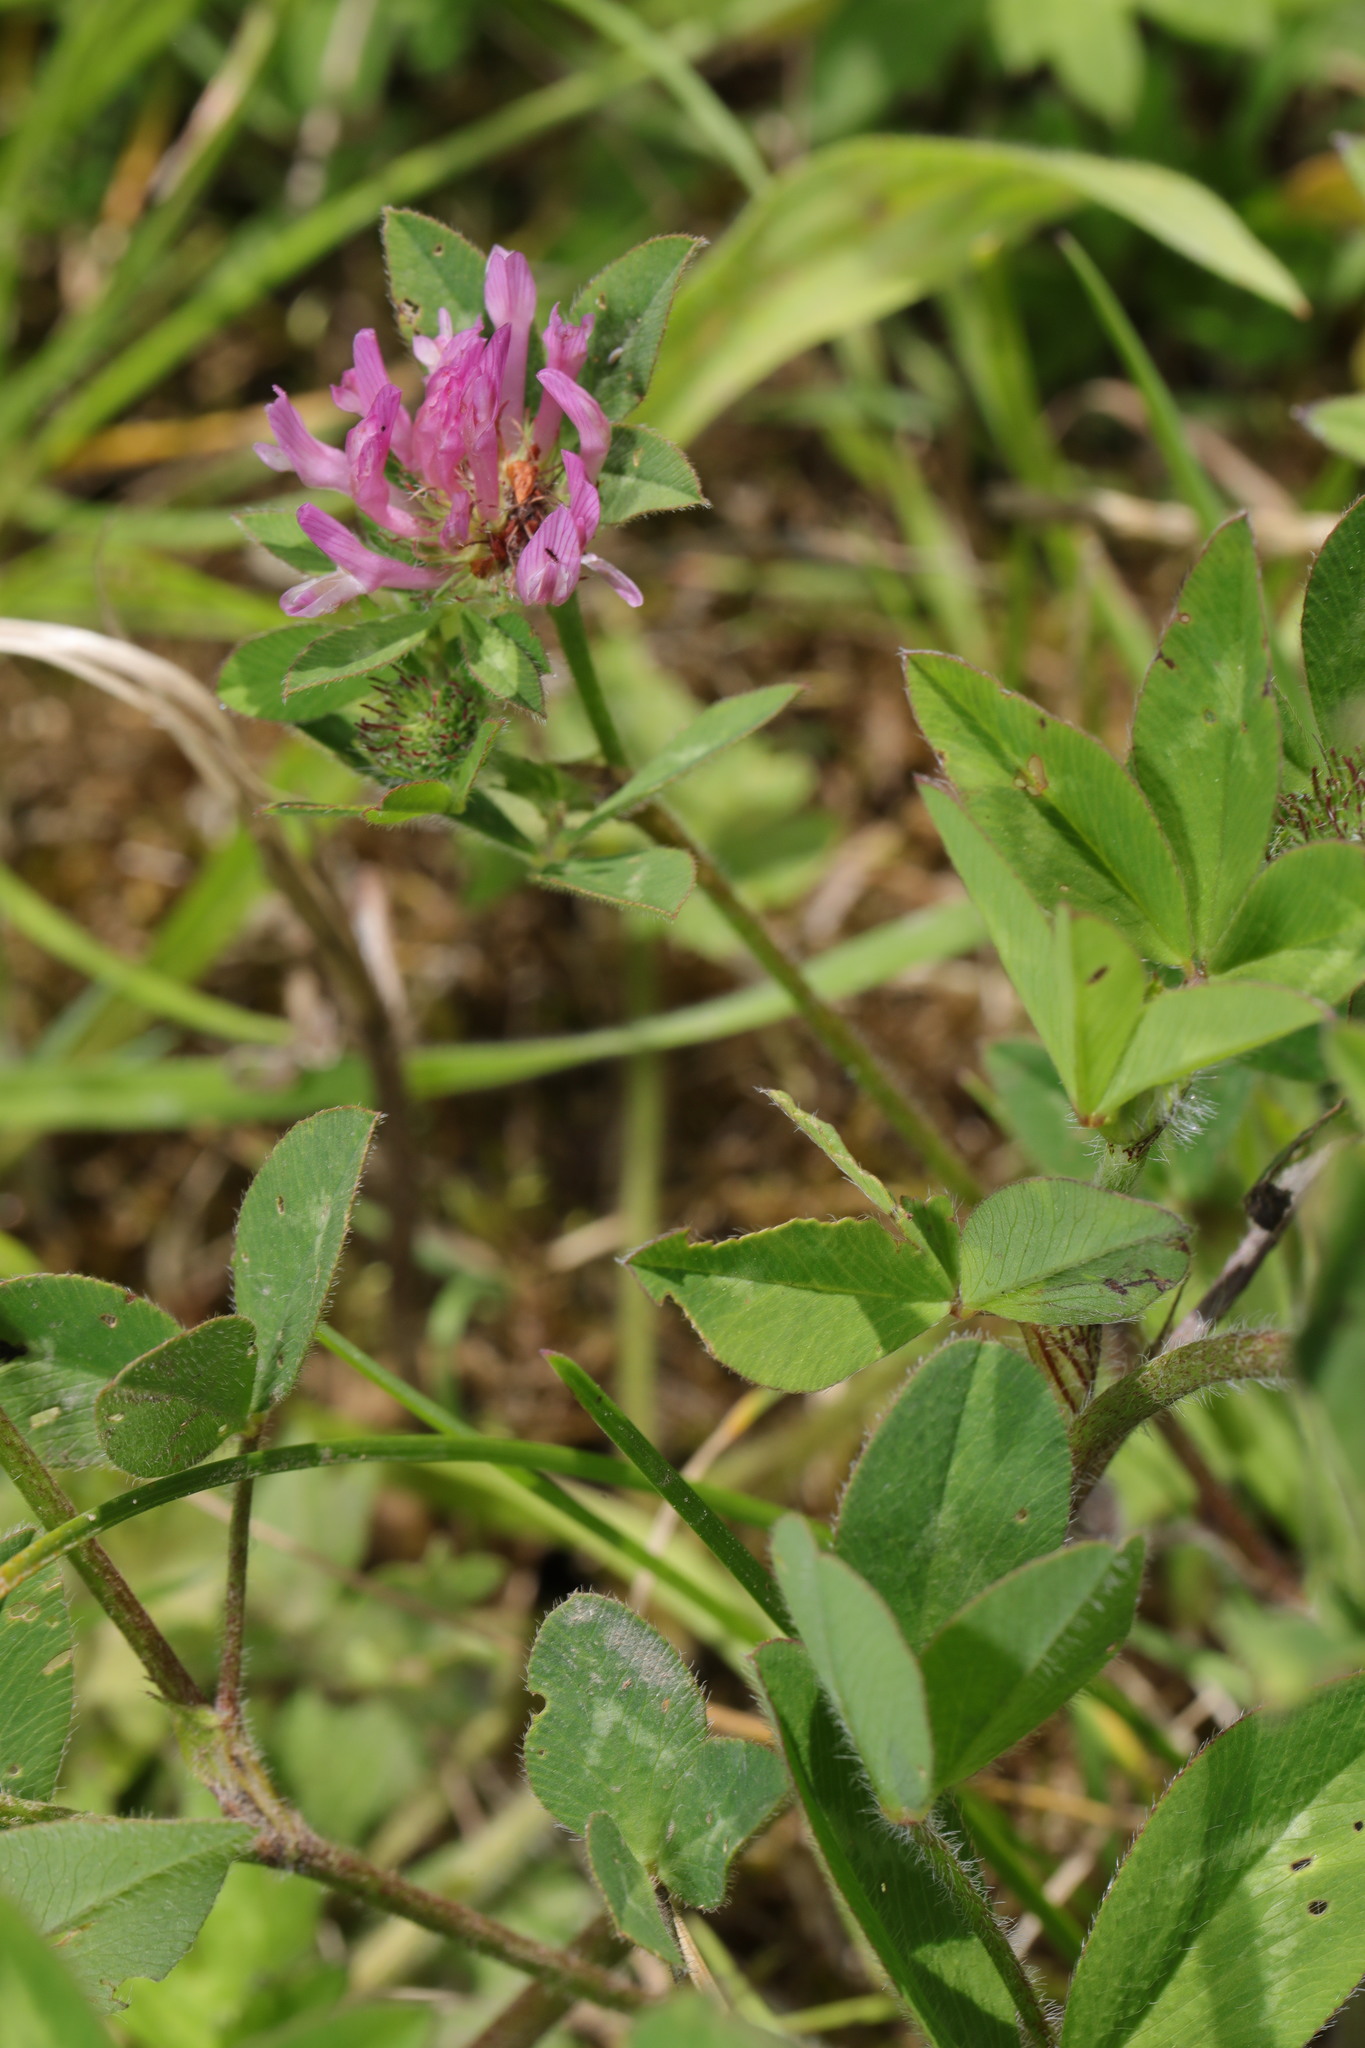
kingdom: Plantae
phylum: Tracheophyta
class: Magnoliopsida
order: Fabales
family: Fabaceae
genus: Trifolium
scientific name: Trifolium pratense
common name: Red clover
